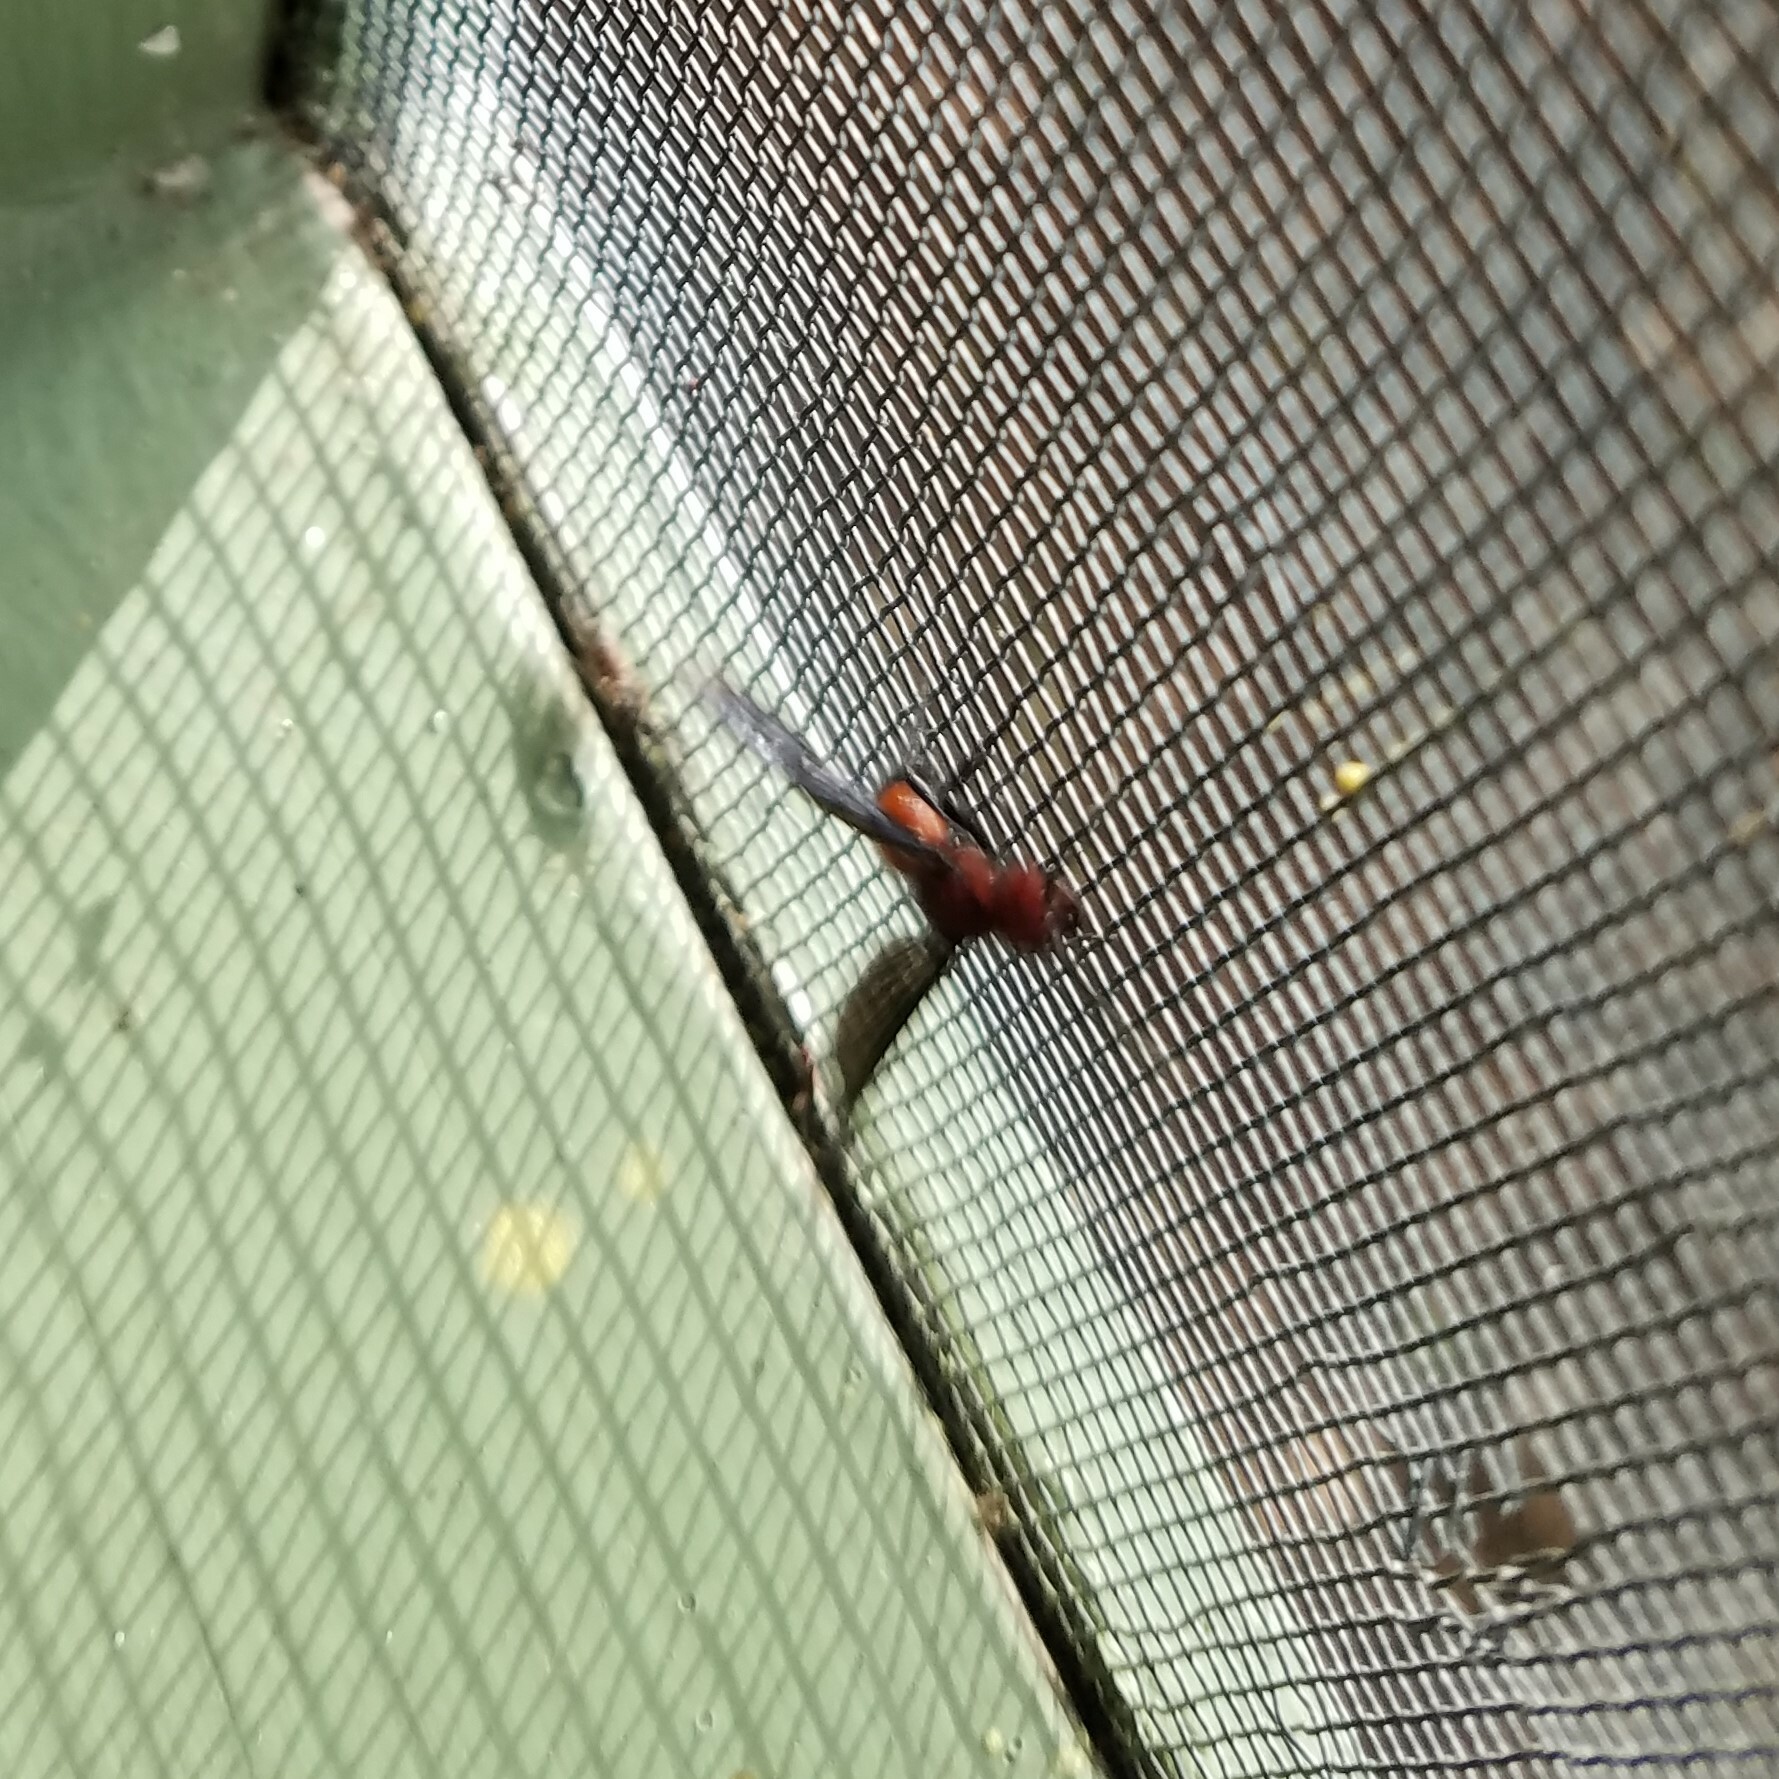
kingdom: Animalia
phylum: Arthropoda
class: Insecta
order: Hymenoptera
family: Mutillidae
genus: Sphaeropthalma
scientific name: Sphaeropthalma
